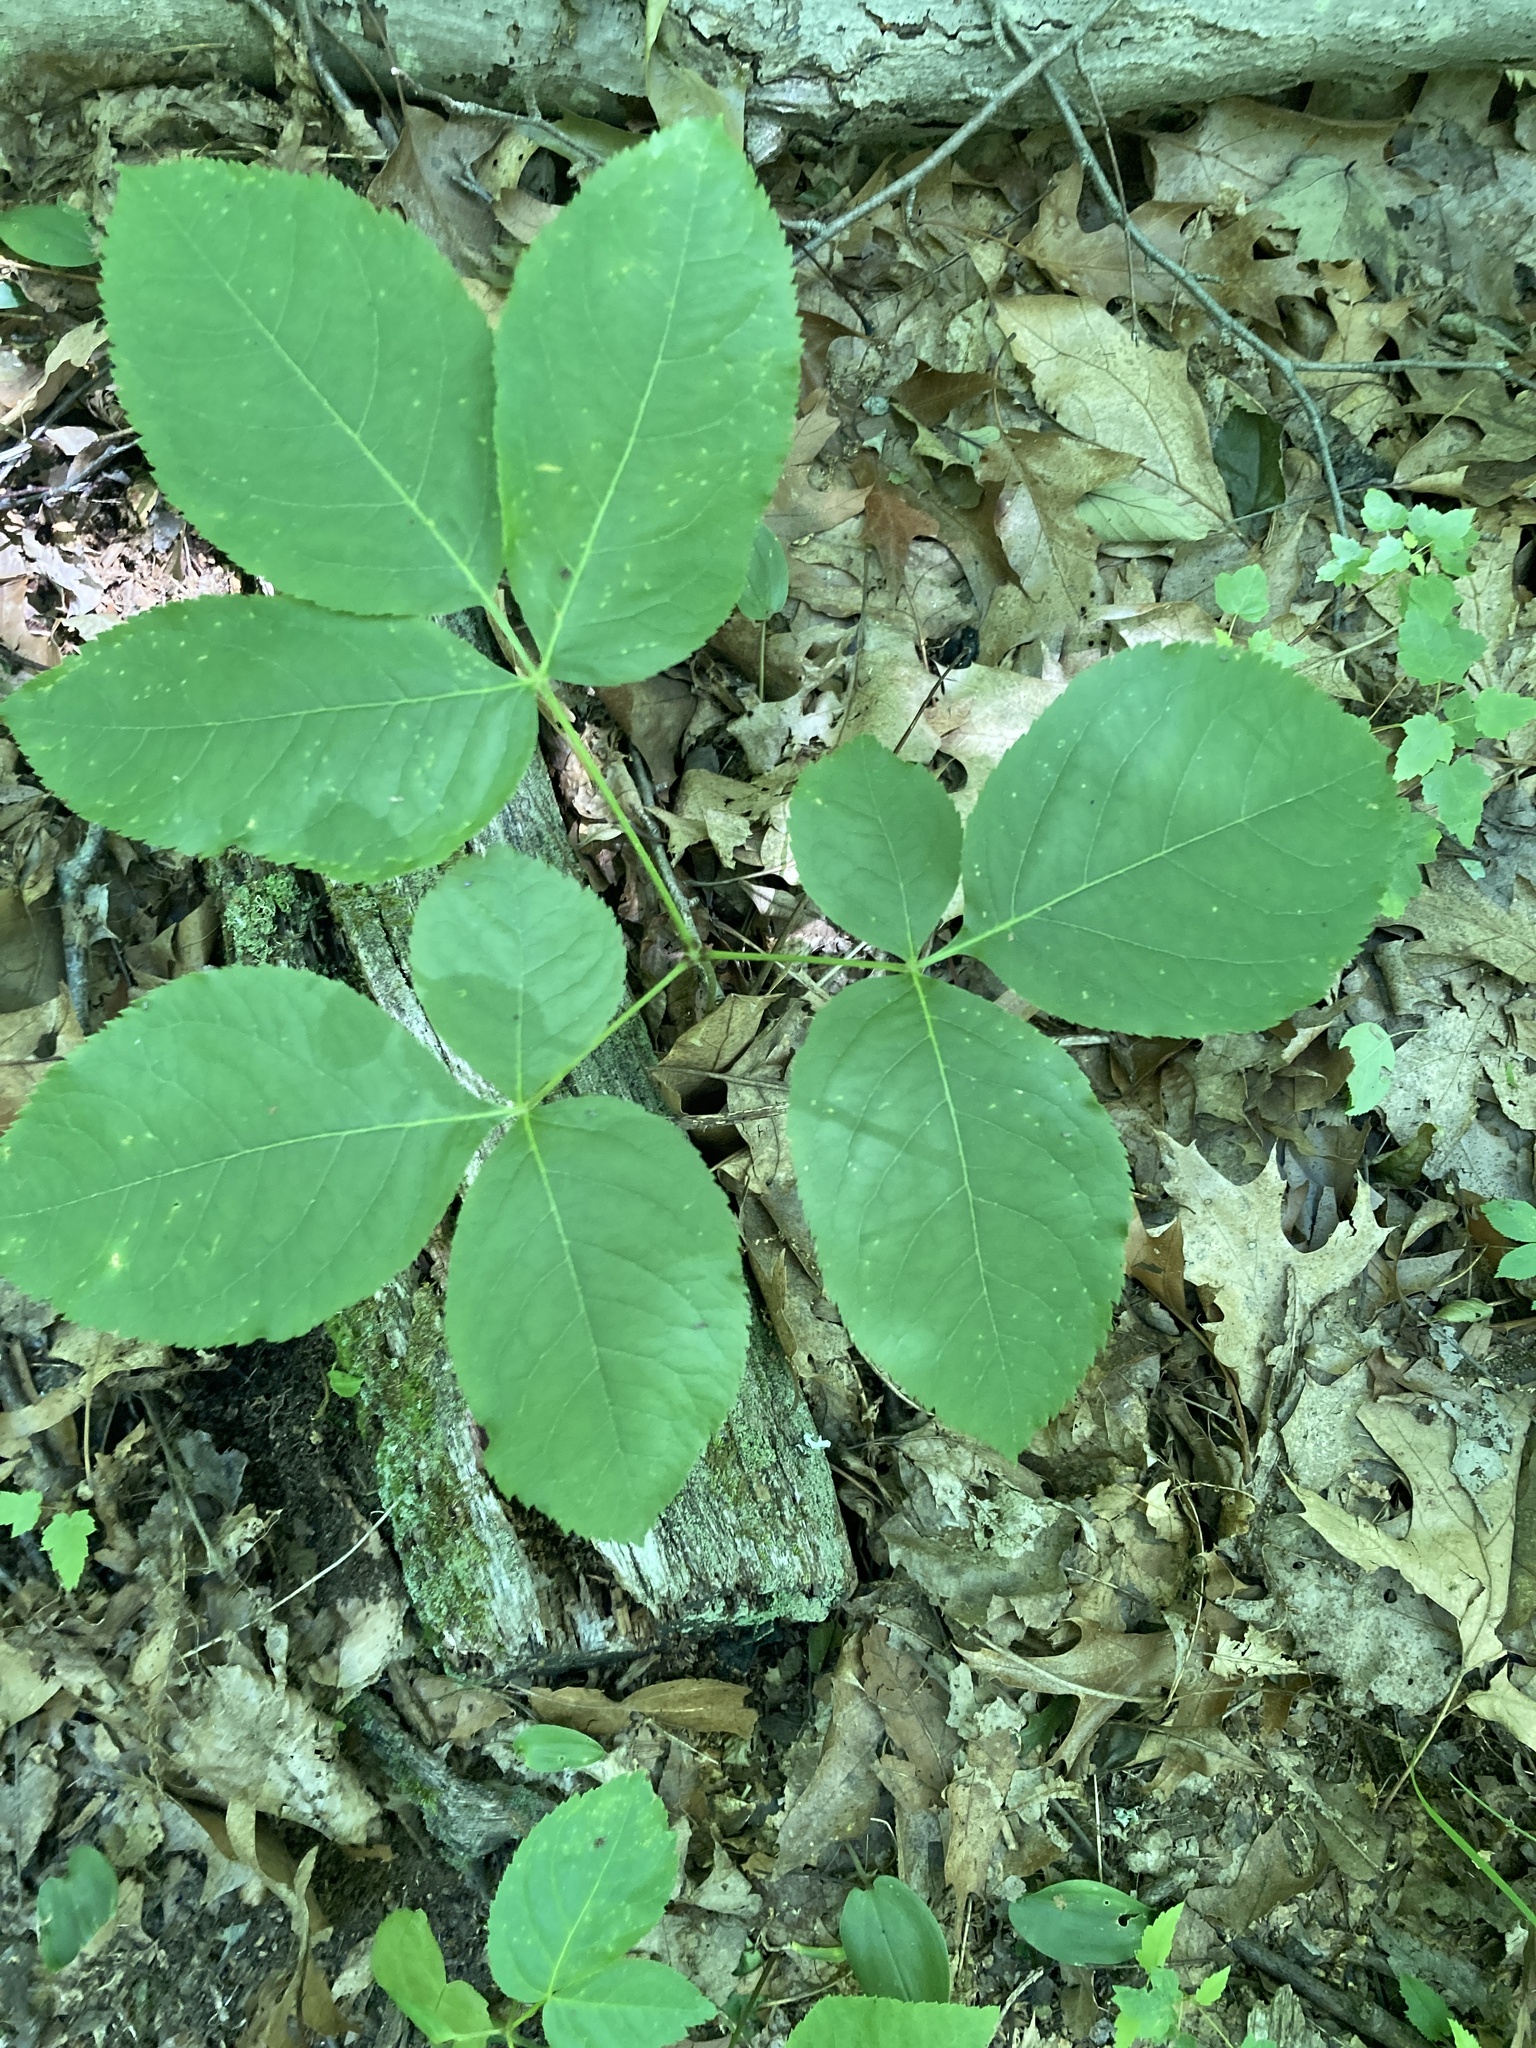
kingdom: Plantae
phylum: Tracheophyta
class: Magnoliopsida
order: Apiales
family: Araliaceae
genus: Aralia
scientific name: Aralia nudicaulis
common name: Wild sarsaparilla
